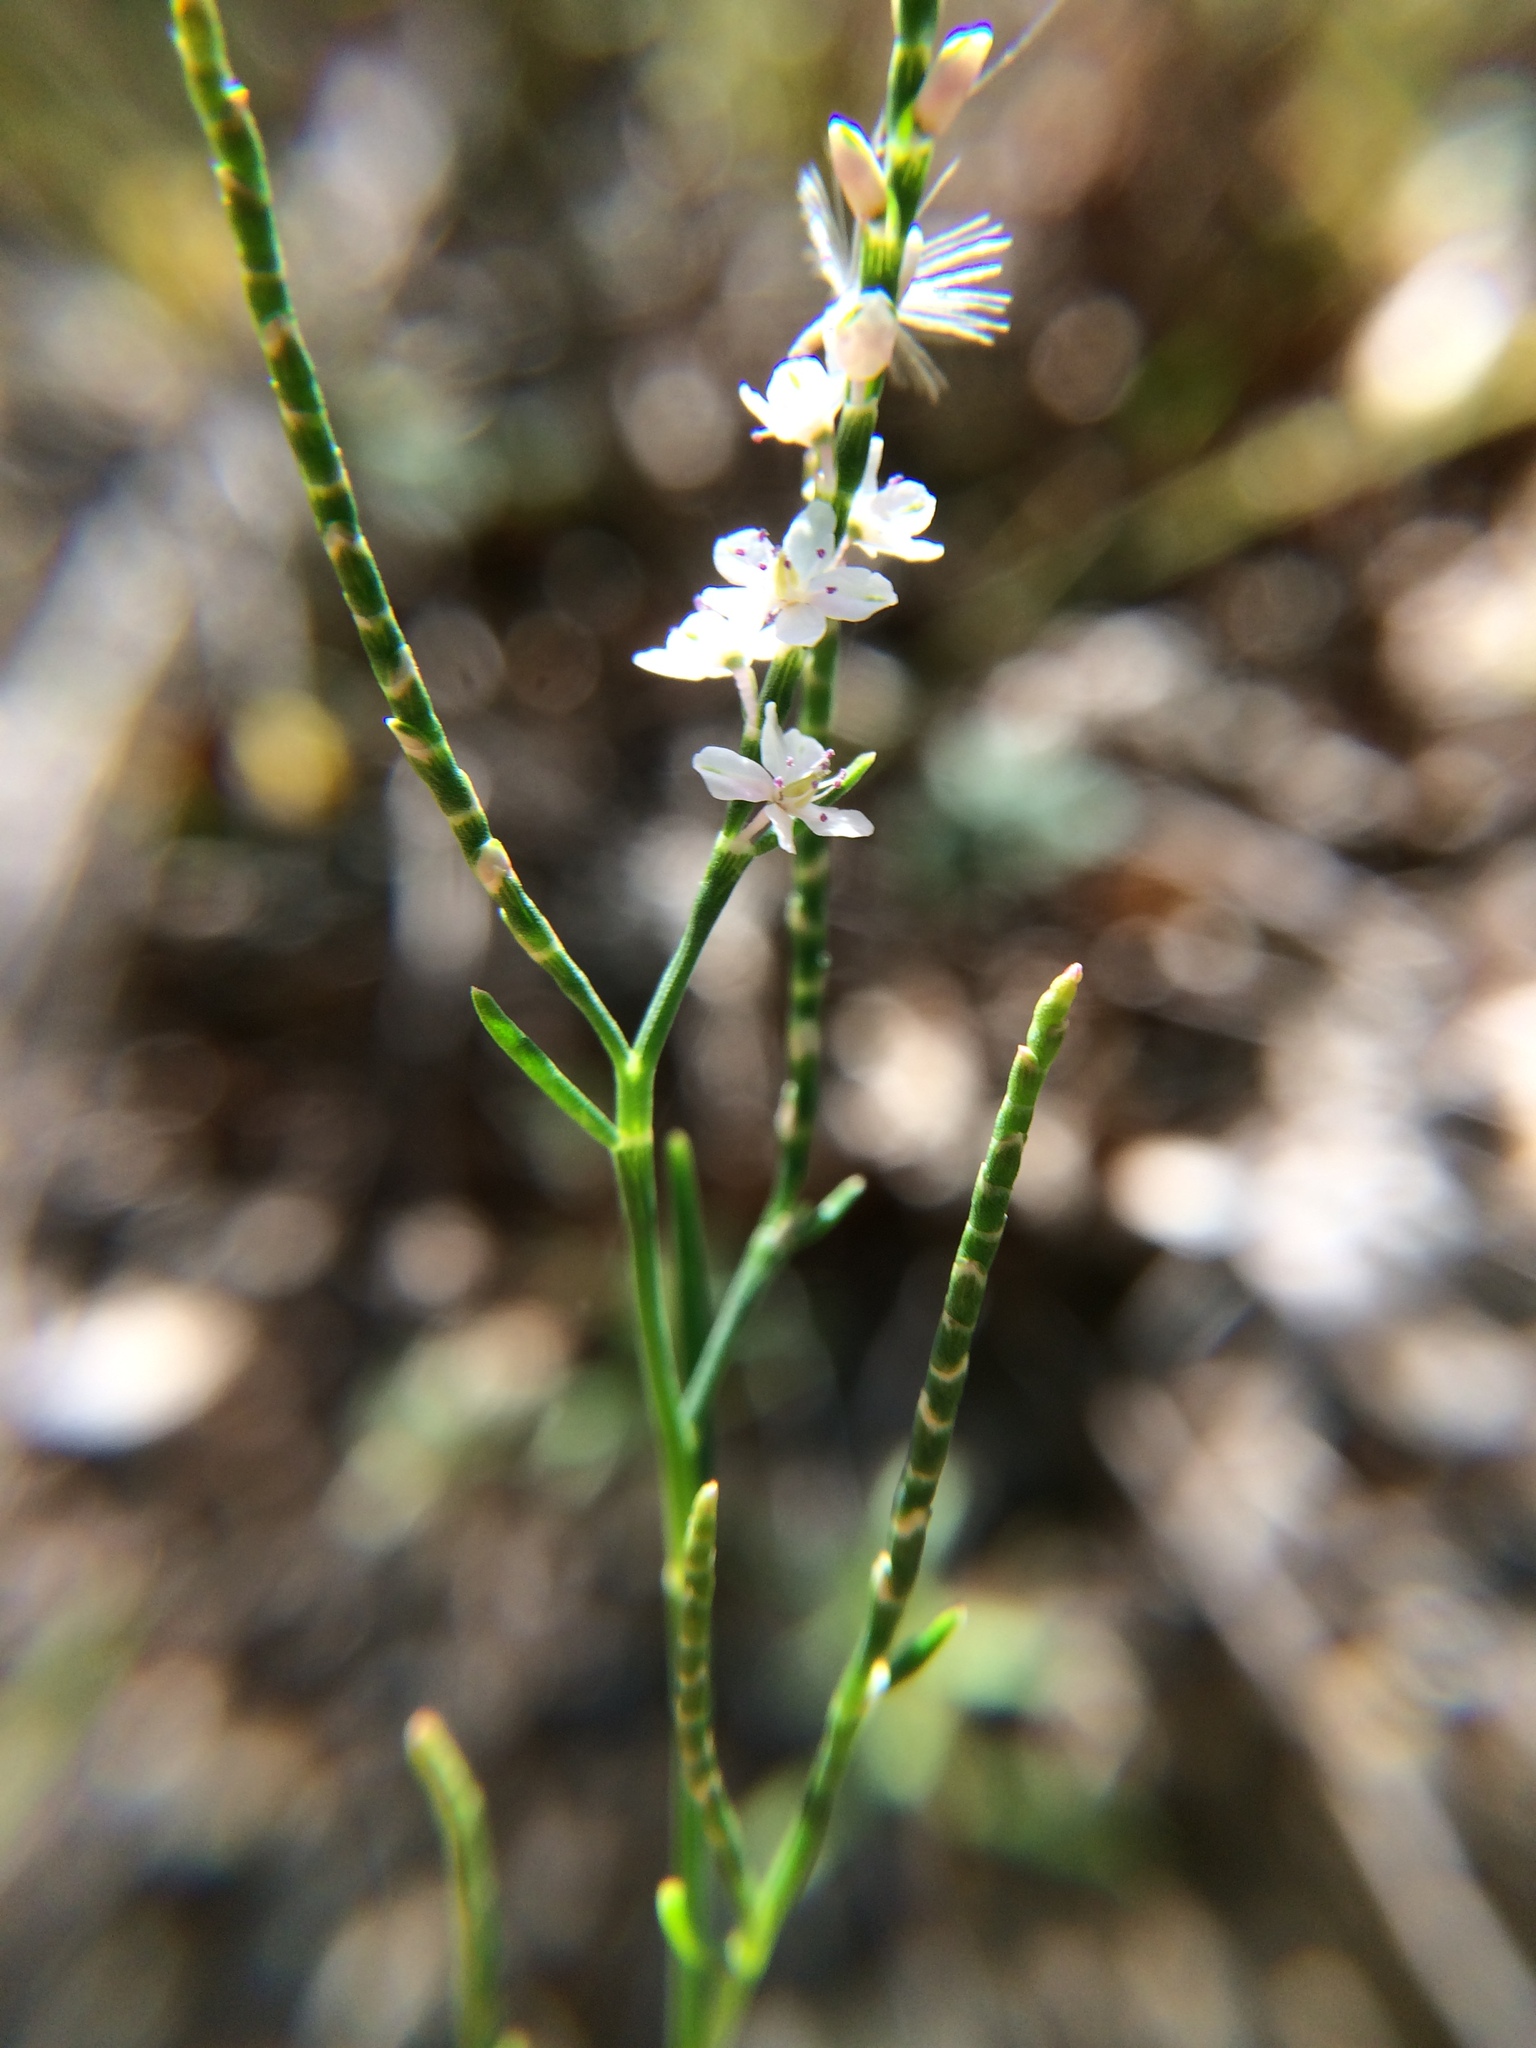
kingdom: Plantae
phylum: Tracheophyta
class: Magnoliopsida
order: Caryophyllales
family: Polygonaceae
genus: Polygonella
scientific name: Polygonella articulata
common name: Coastal jointweed
